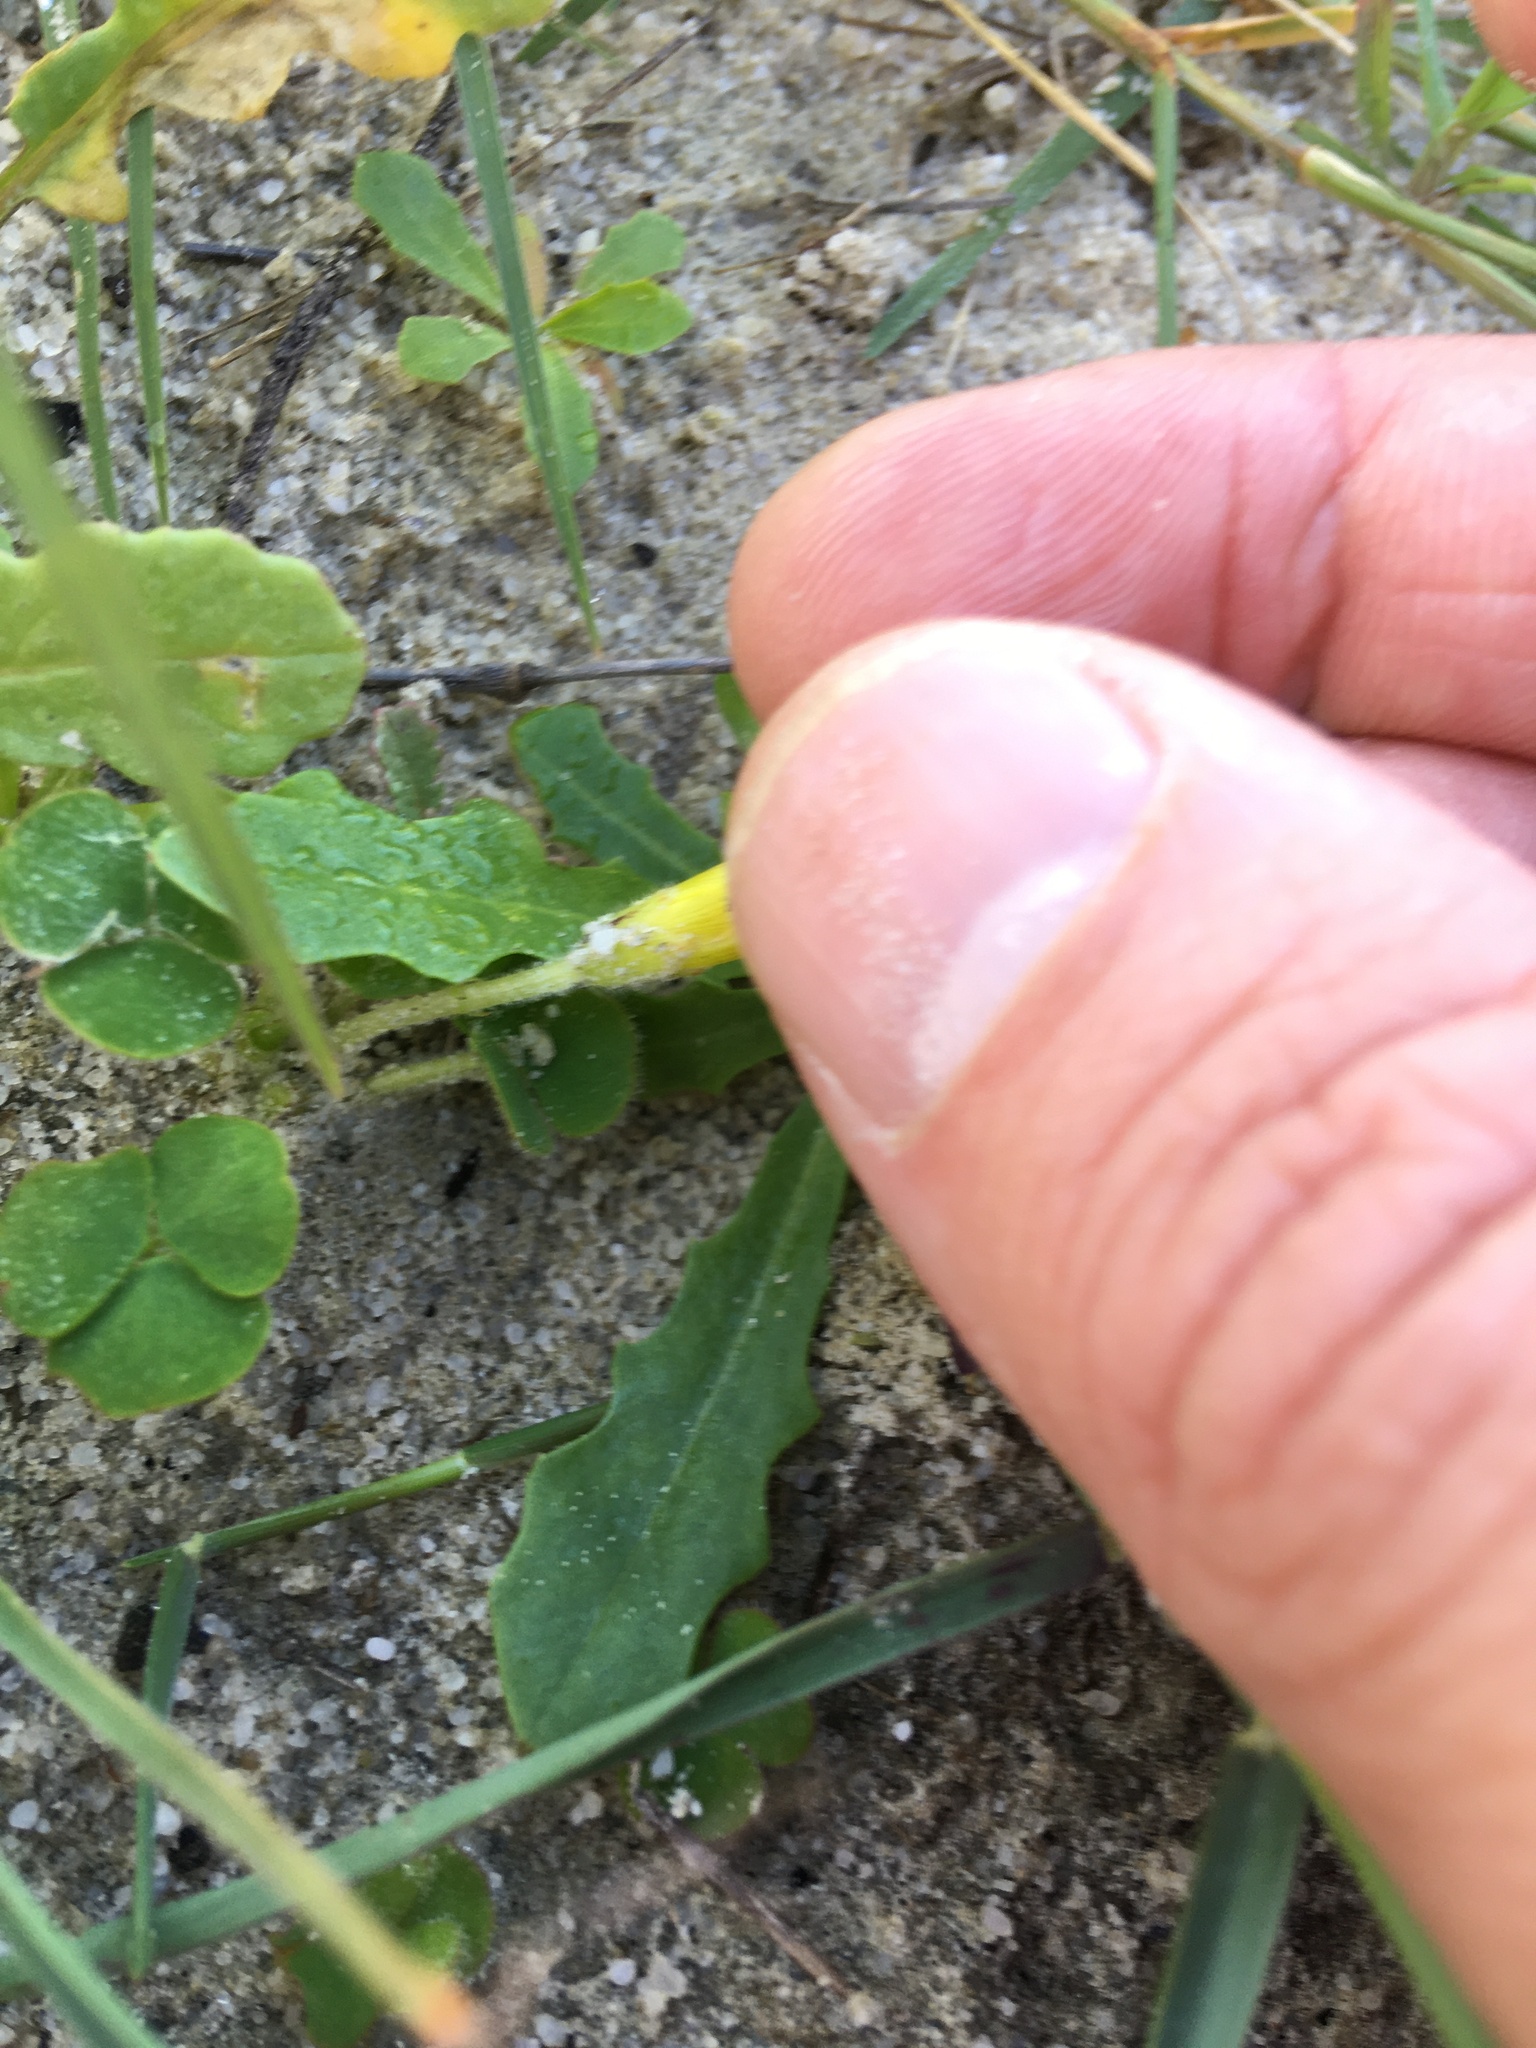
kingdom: Plantae
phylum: Tracheophyta
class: Magnoliopsida
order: Oxalidales
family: Oxalidaceae
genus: Oxalis
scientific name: Oxalis luteola
